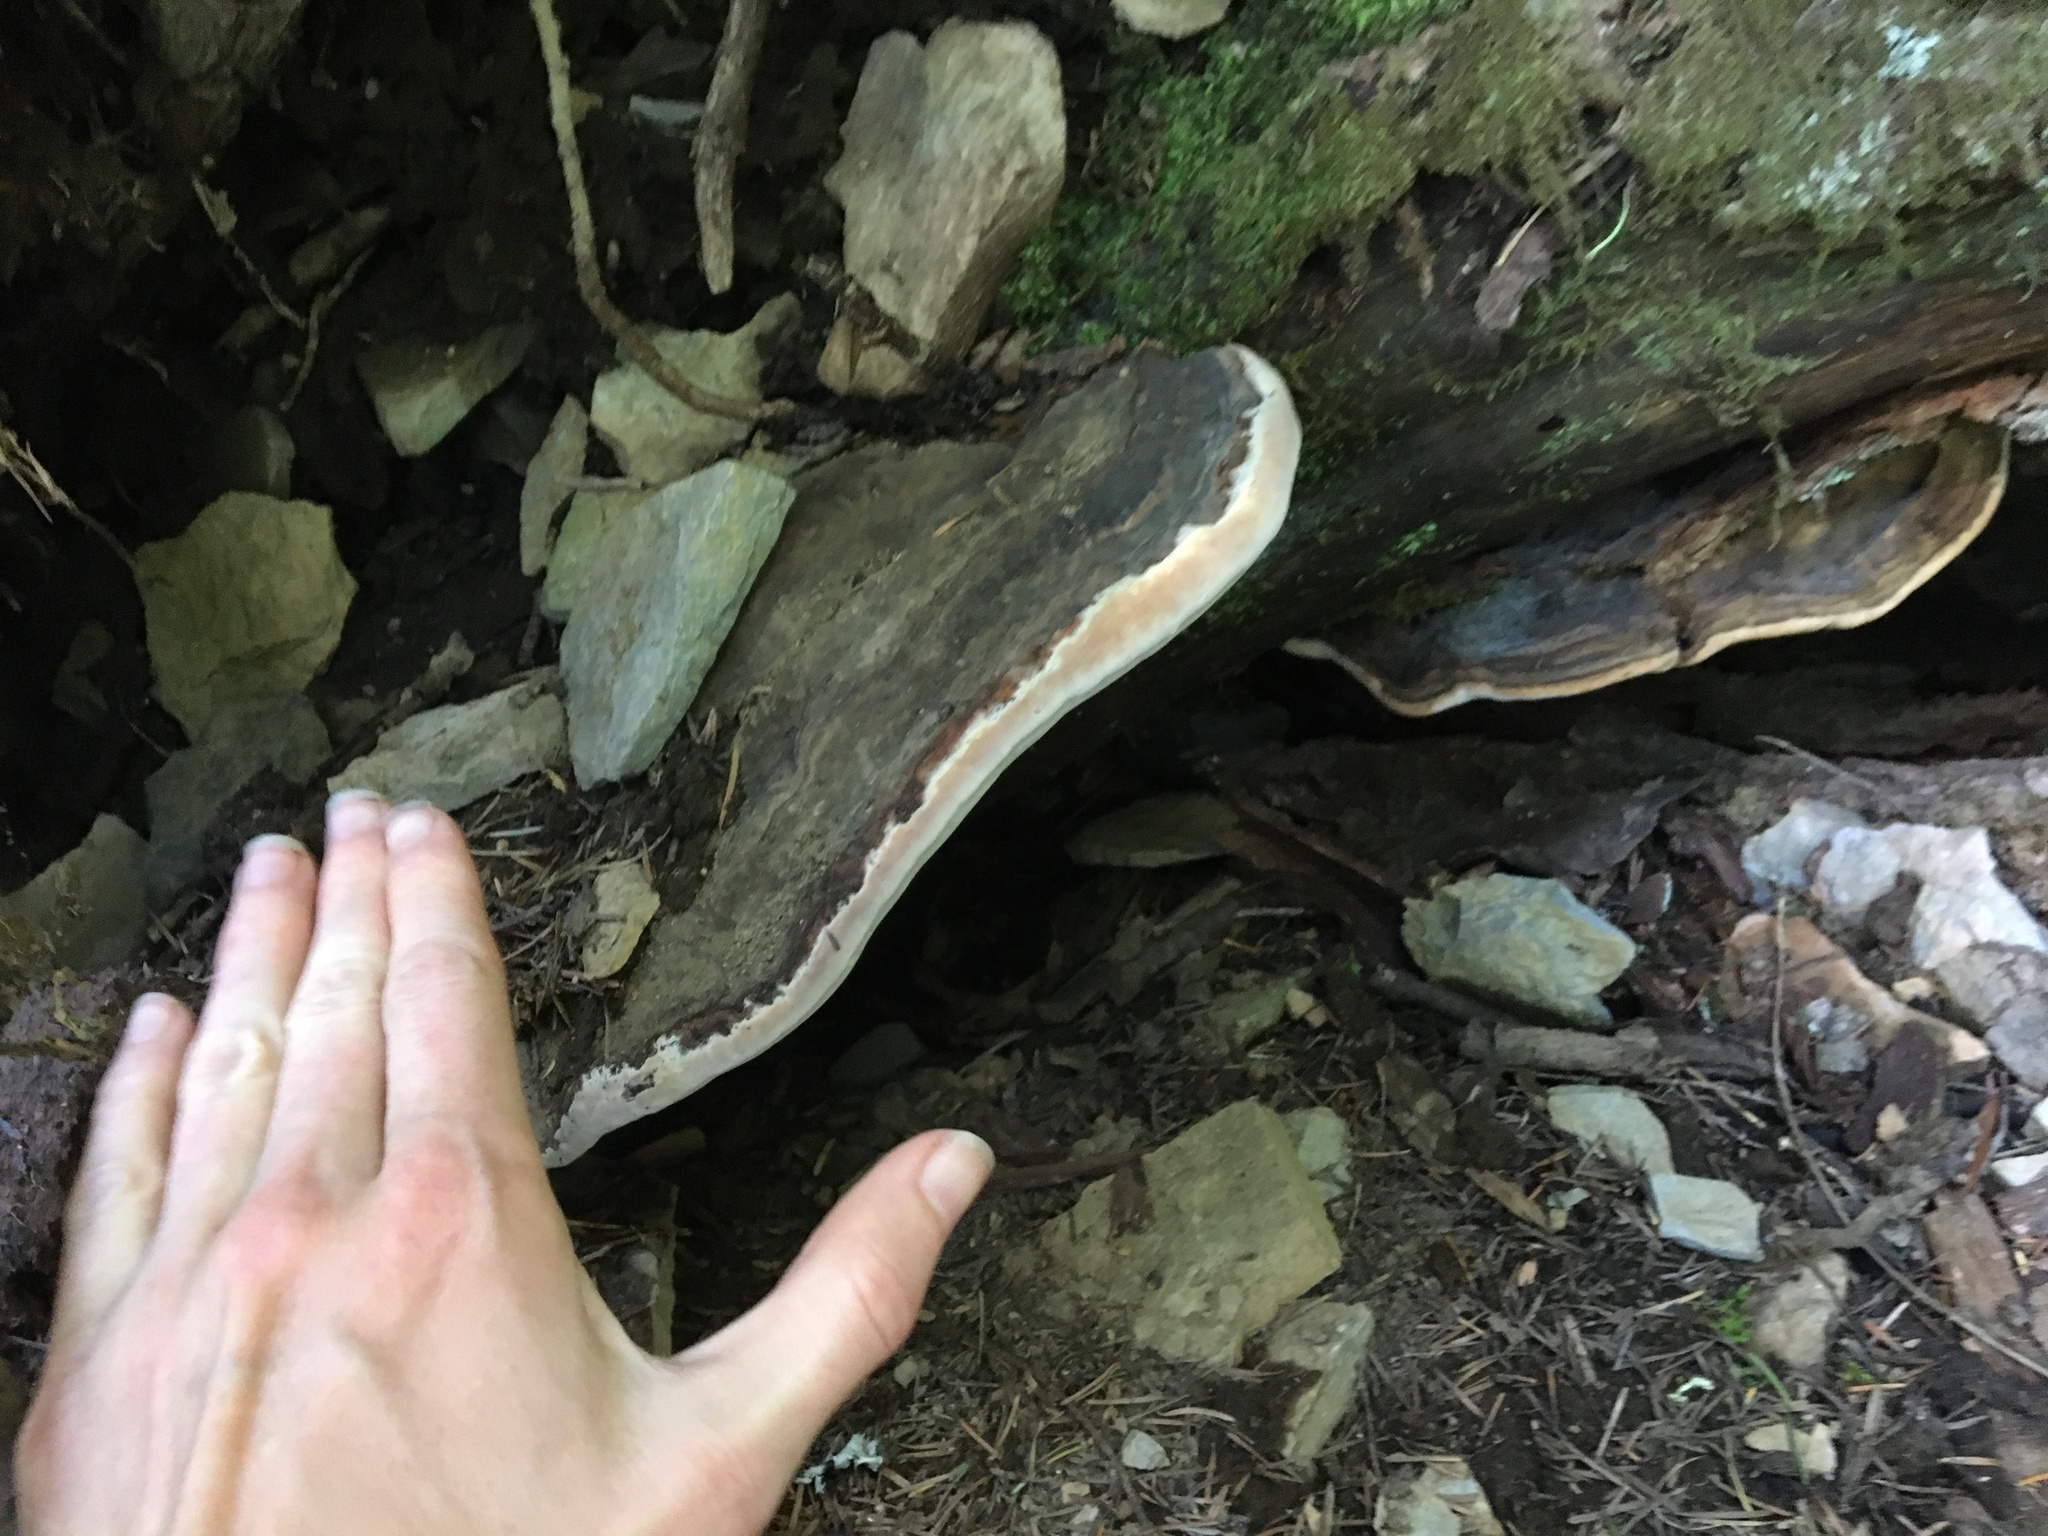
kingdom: Fungi
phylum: Basidiomycota
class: Agaricomycetes
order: Polyporales
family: Fomitopsidaceae
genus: Fomitopsis
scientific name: Fomitopsis ochracea
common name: American brown fomitopsis
